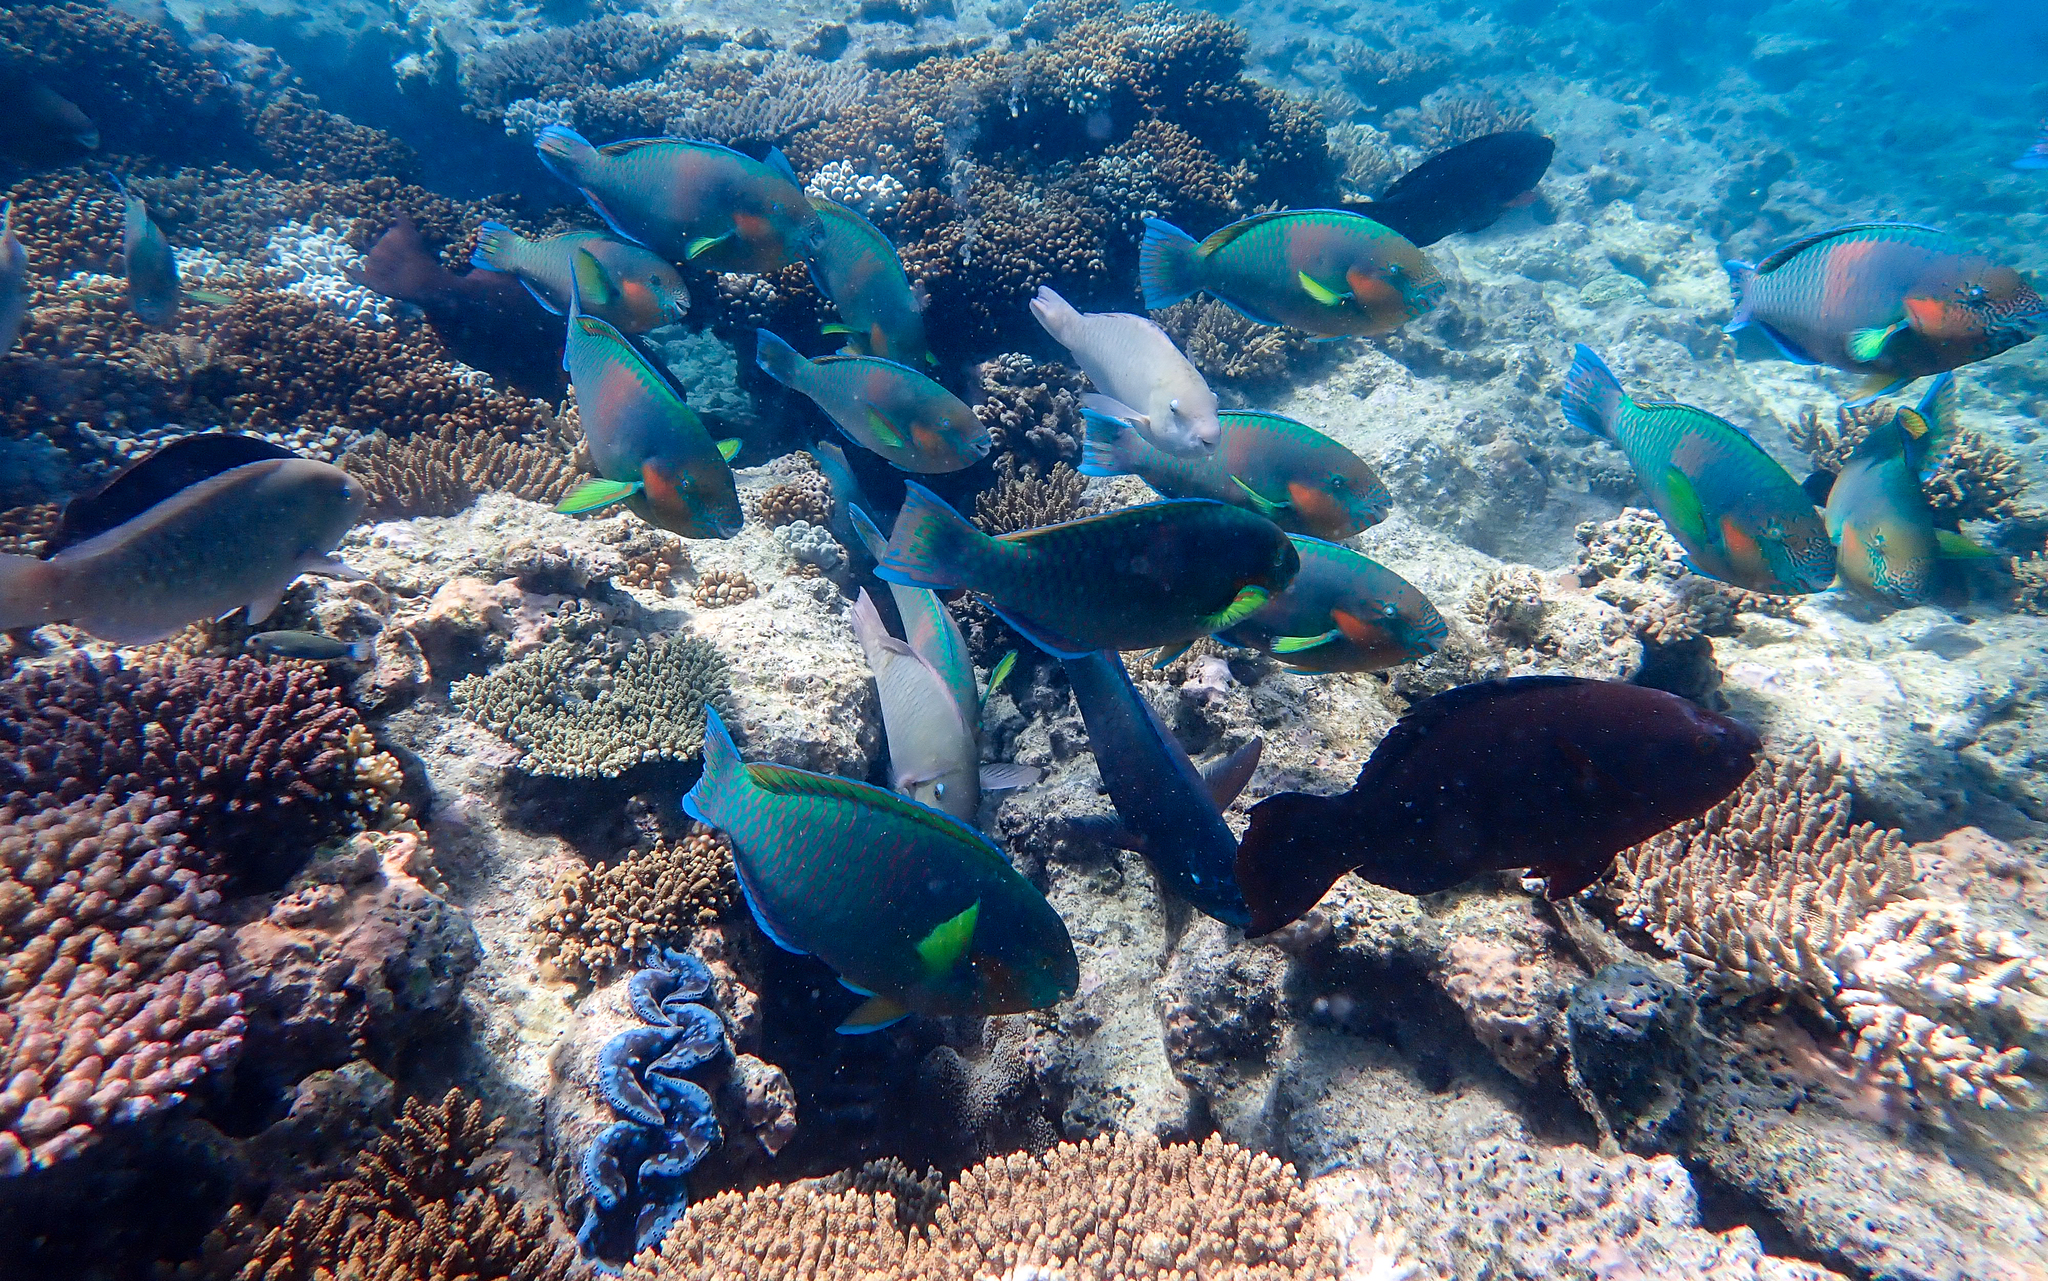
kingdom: Animalia
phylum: Chordata
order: Perciformes
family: Scaridae
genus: Scarus
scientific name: Scarus rivulatus
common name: Surf parrotfish
